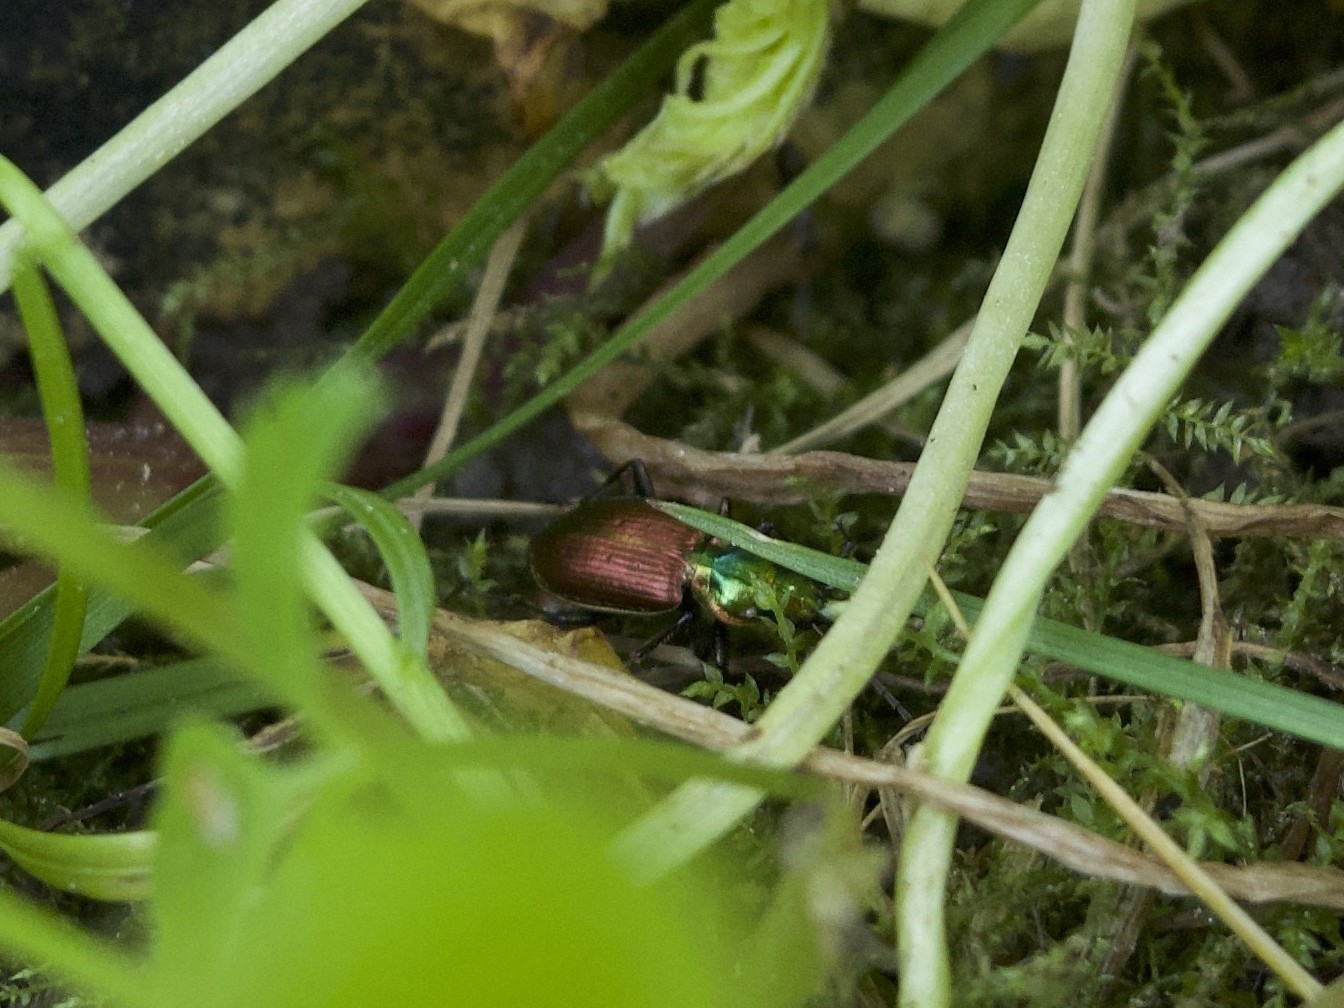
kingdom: Animalia
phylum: Arthropoda
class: Insecta
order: Coleoptera
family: Carabidae
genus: Agonum
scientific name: Agonum sexpunctatum
